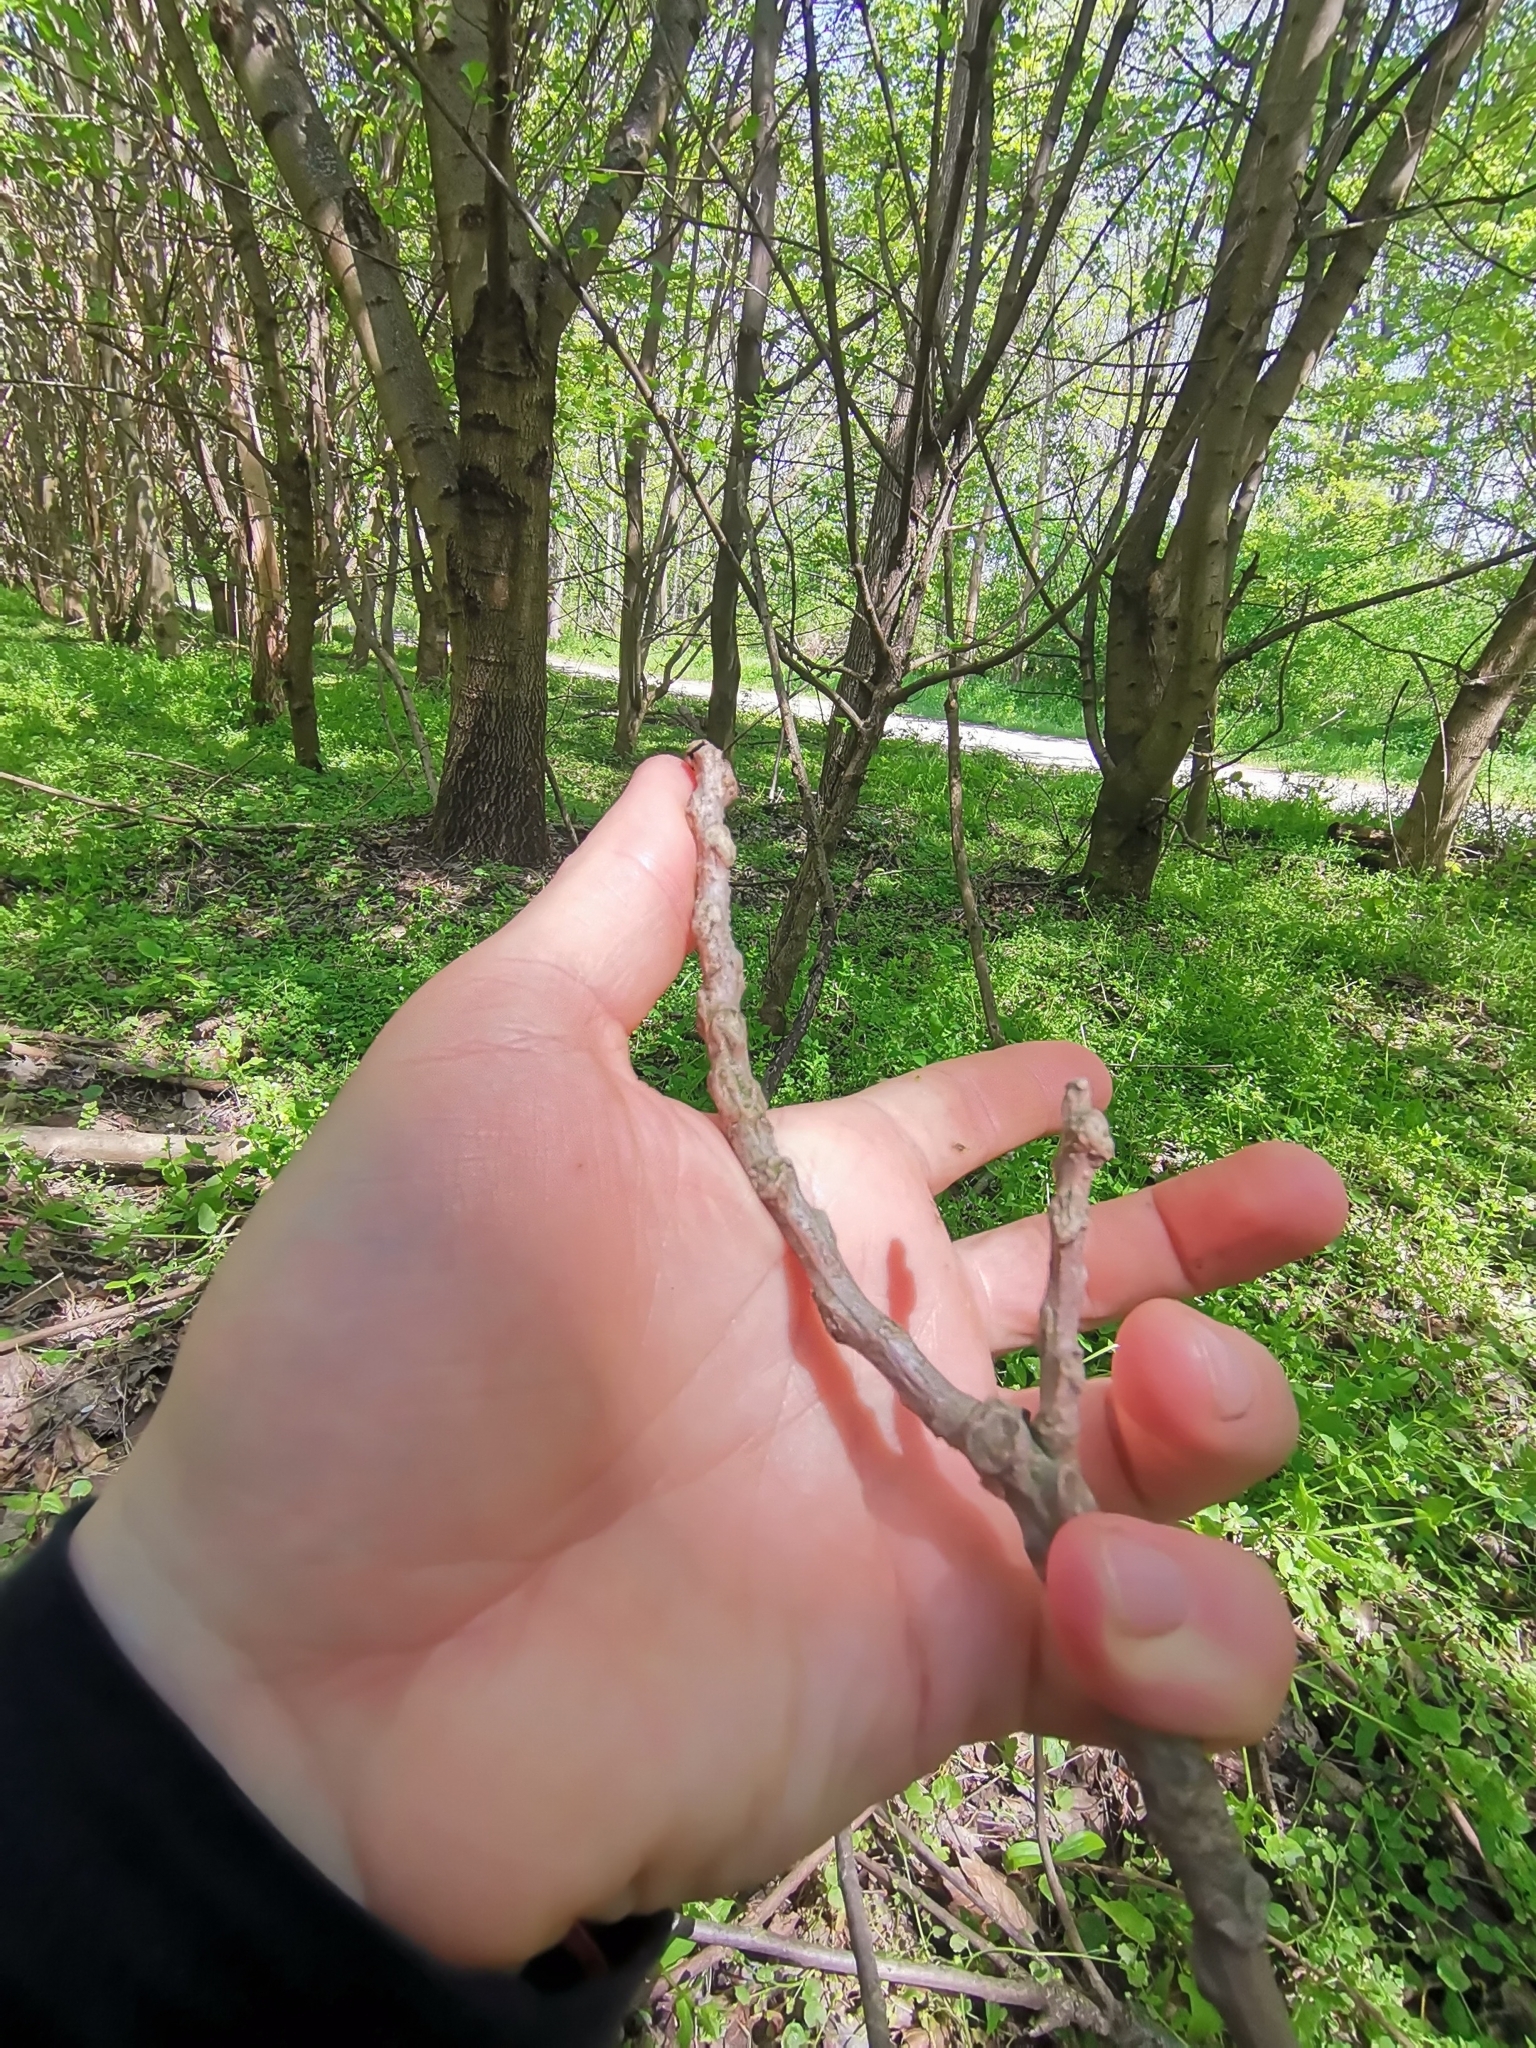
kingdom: Plantae
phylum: Tracheophyta
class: Magnoliopsida
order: Lamiales
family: Oleaceae
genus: Fraxinus
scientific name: Fraxinus excelsior
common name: European ash
